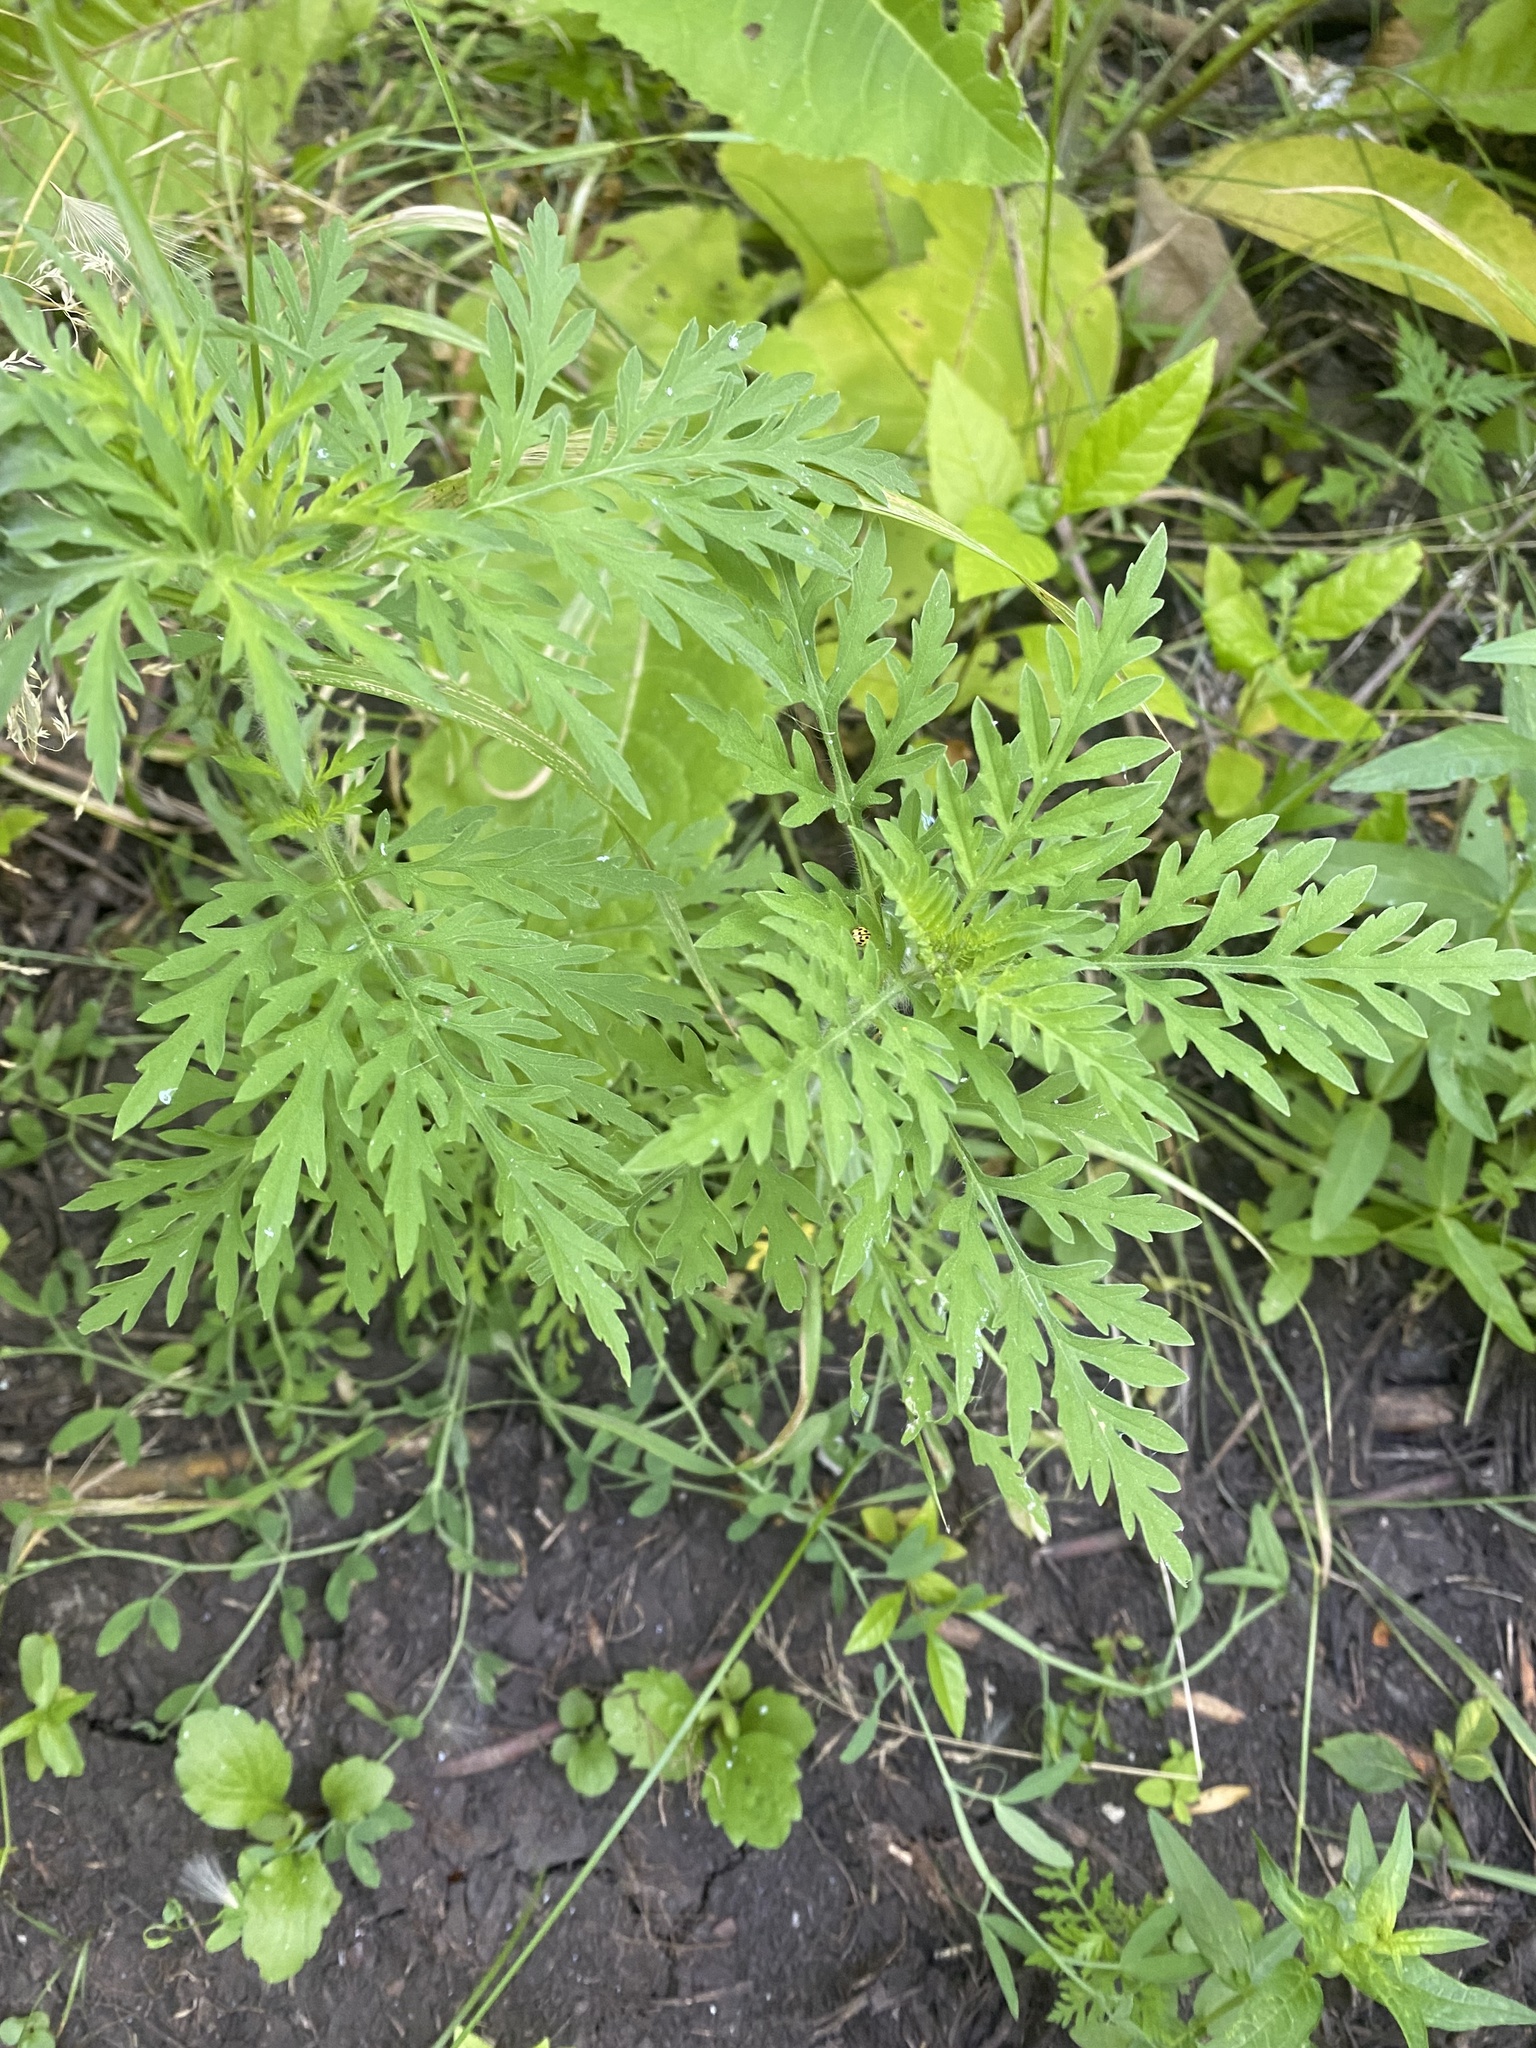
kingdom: Plantae
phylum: Tracheophyta
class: Magnoliopsida
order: Asterales
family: Asteraceae
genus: Ambrosia
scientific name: Ambrosia artemisiifolia
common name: Annual ragweed
